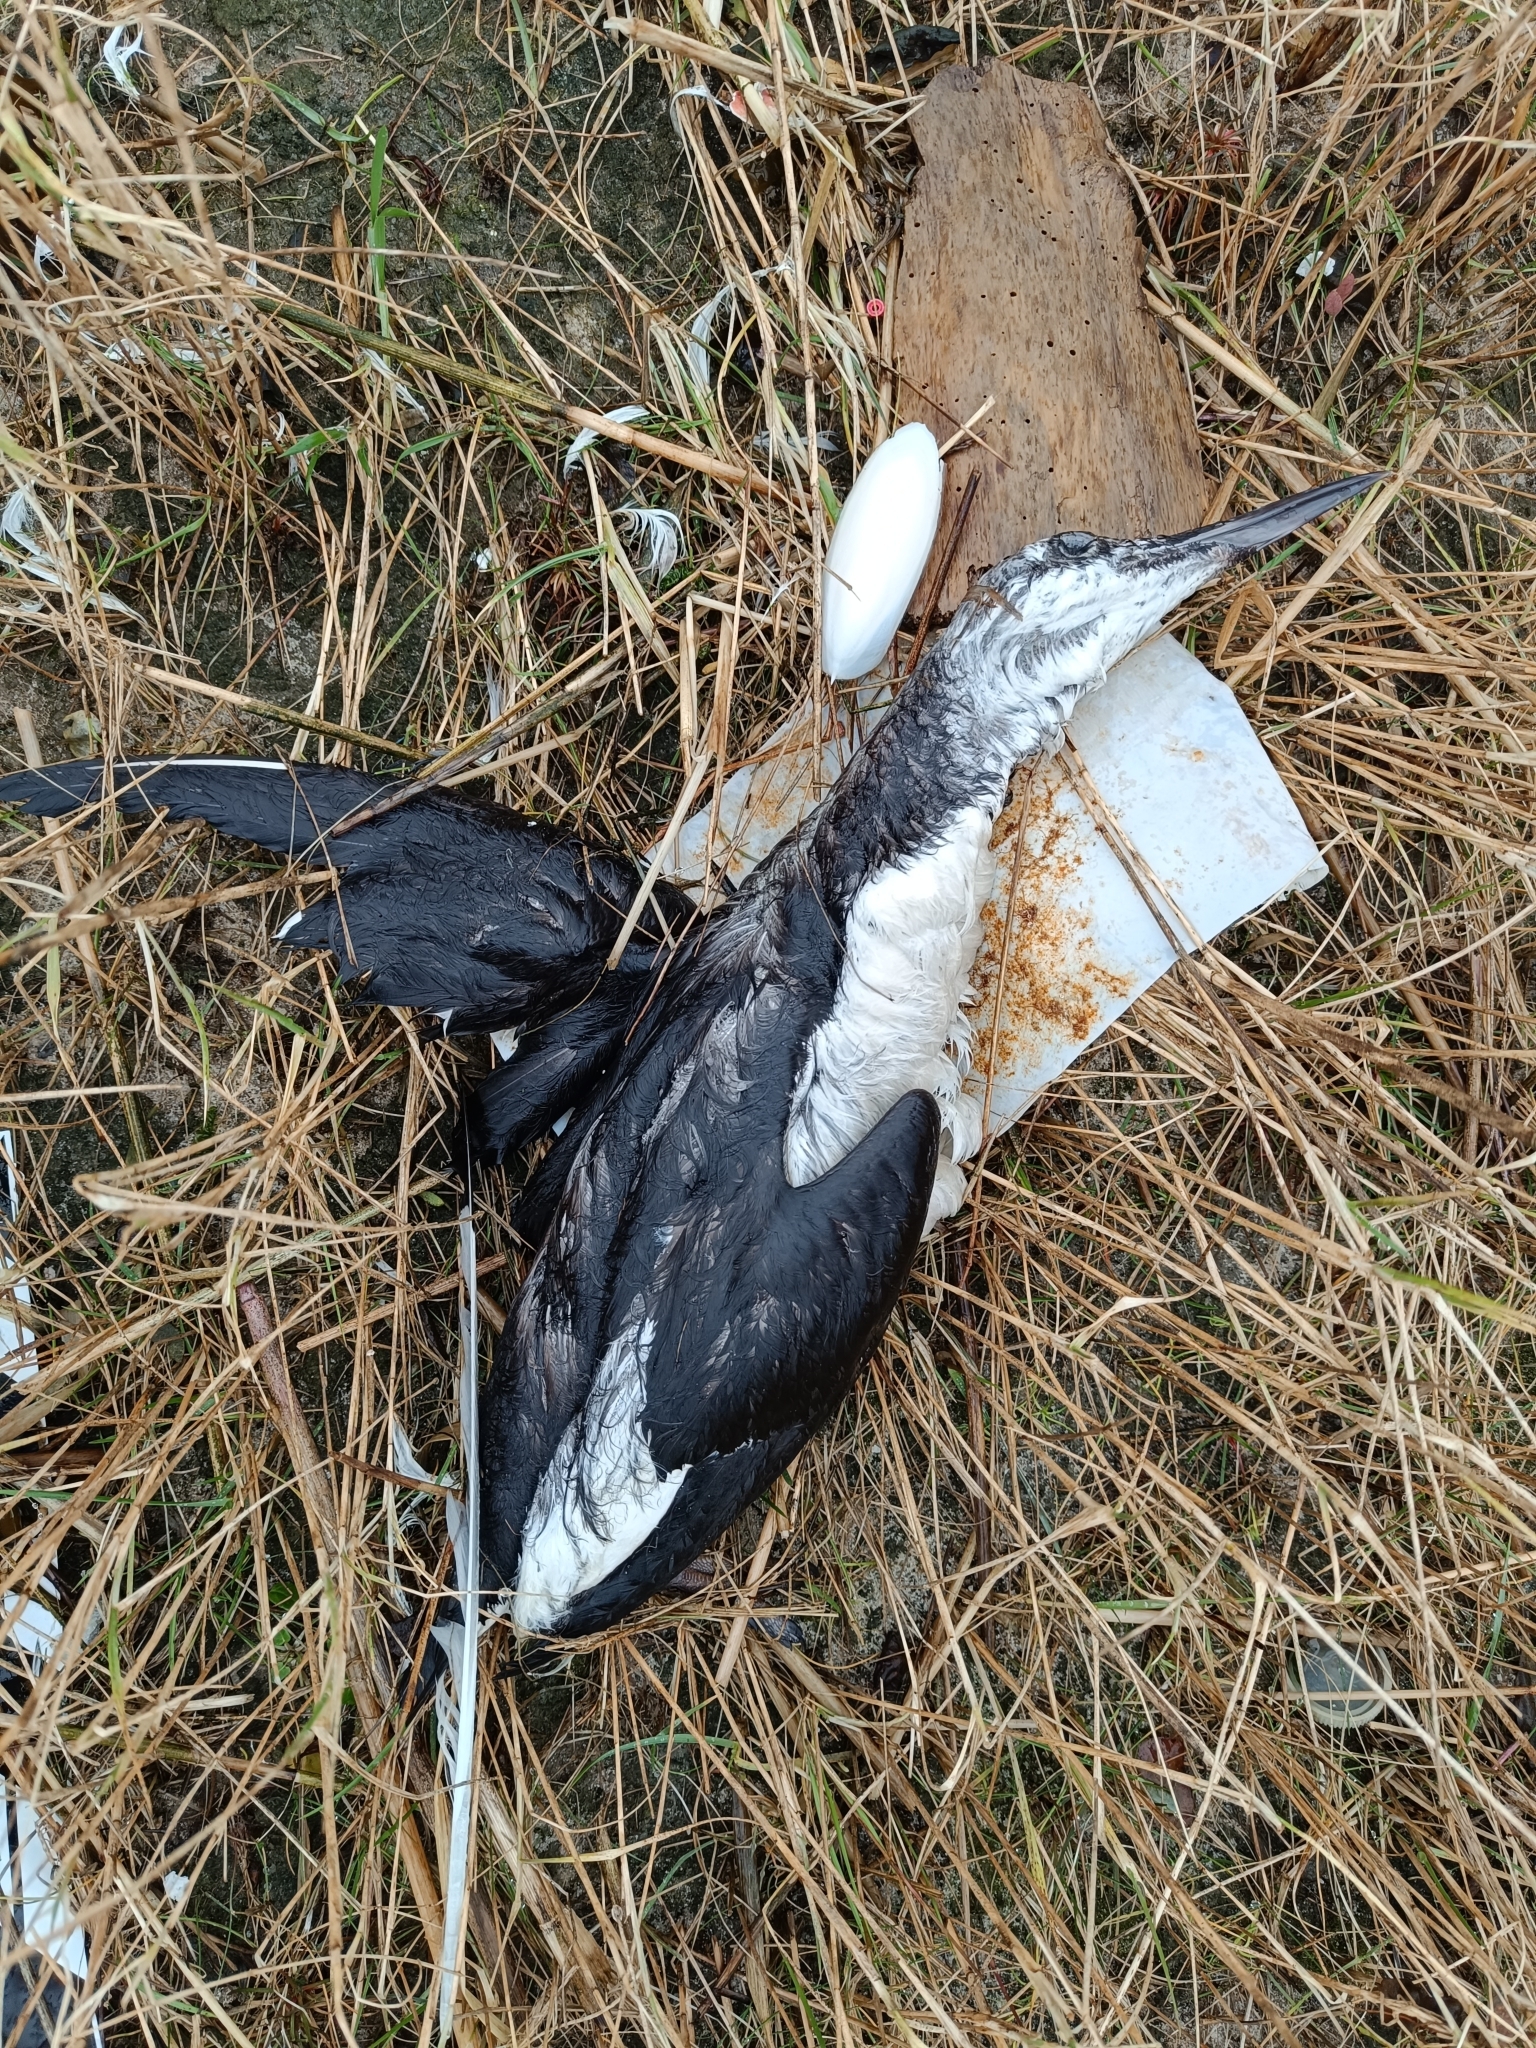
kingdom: Animalia
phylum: Chordata
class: Aves
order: Charadriiformes
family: Alcidae
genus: Uria
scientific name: Uria aalge
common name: Common murre
